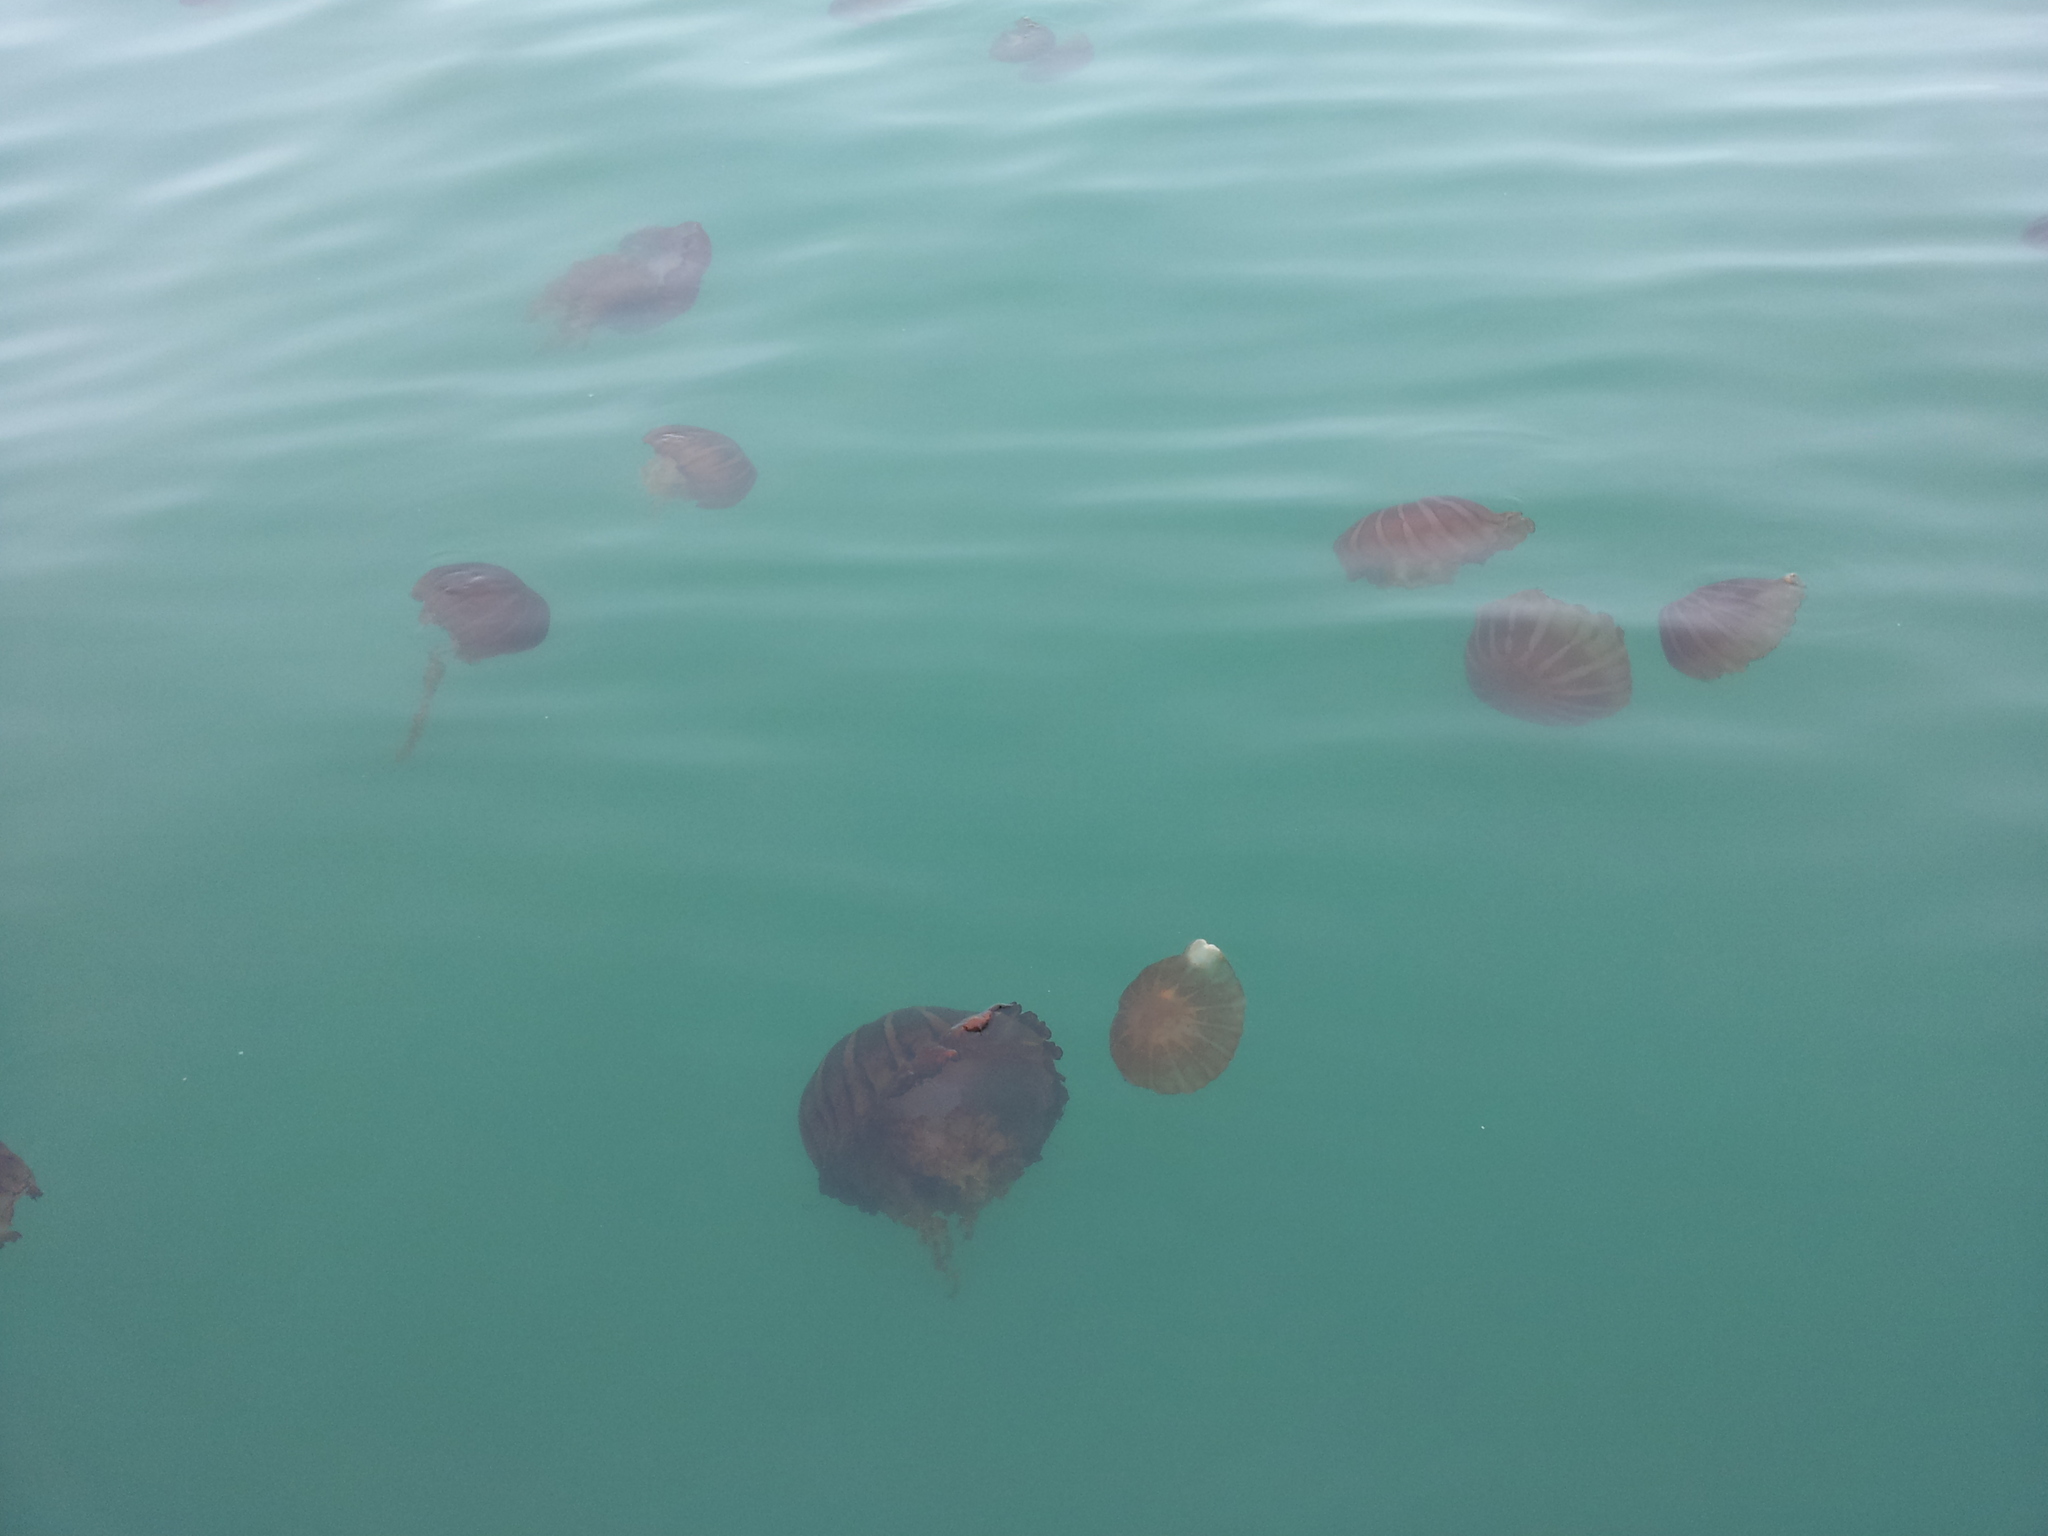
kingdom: Animalia
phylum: Cnidaria
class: Scyphozoa
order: Semaeostomeae
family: Pelagiidae
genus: Chrysaora
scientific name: Chrysaora fulgida
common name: Sea nettle
